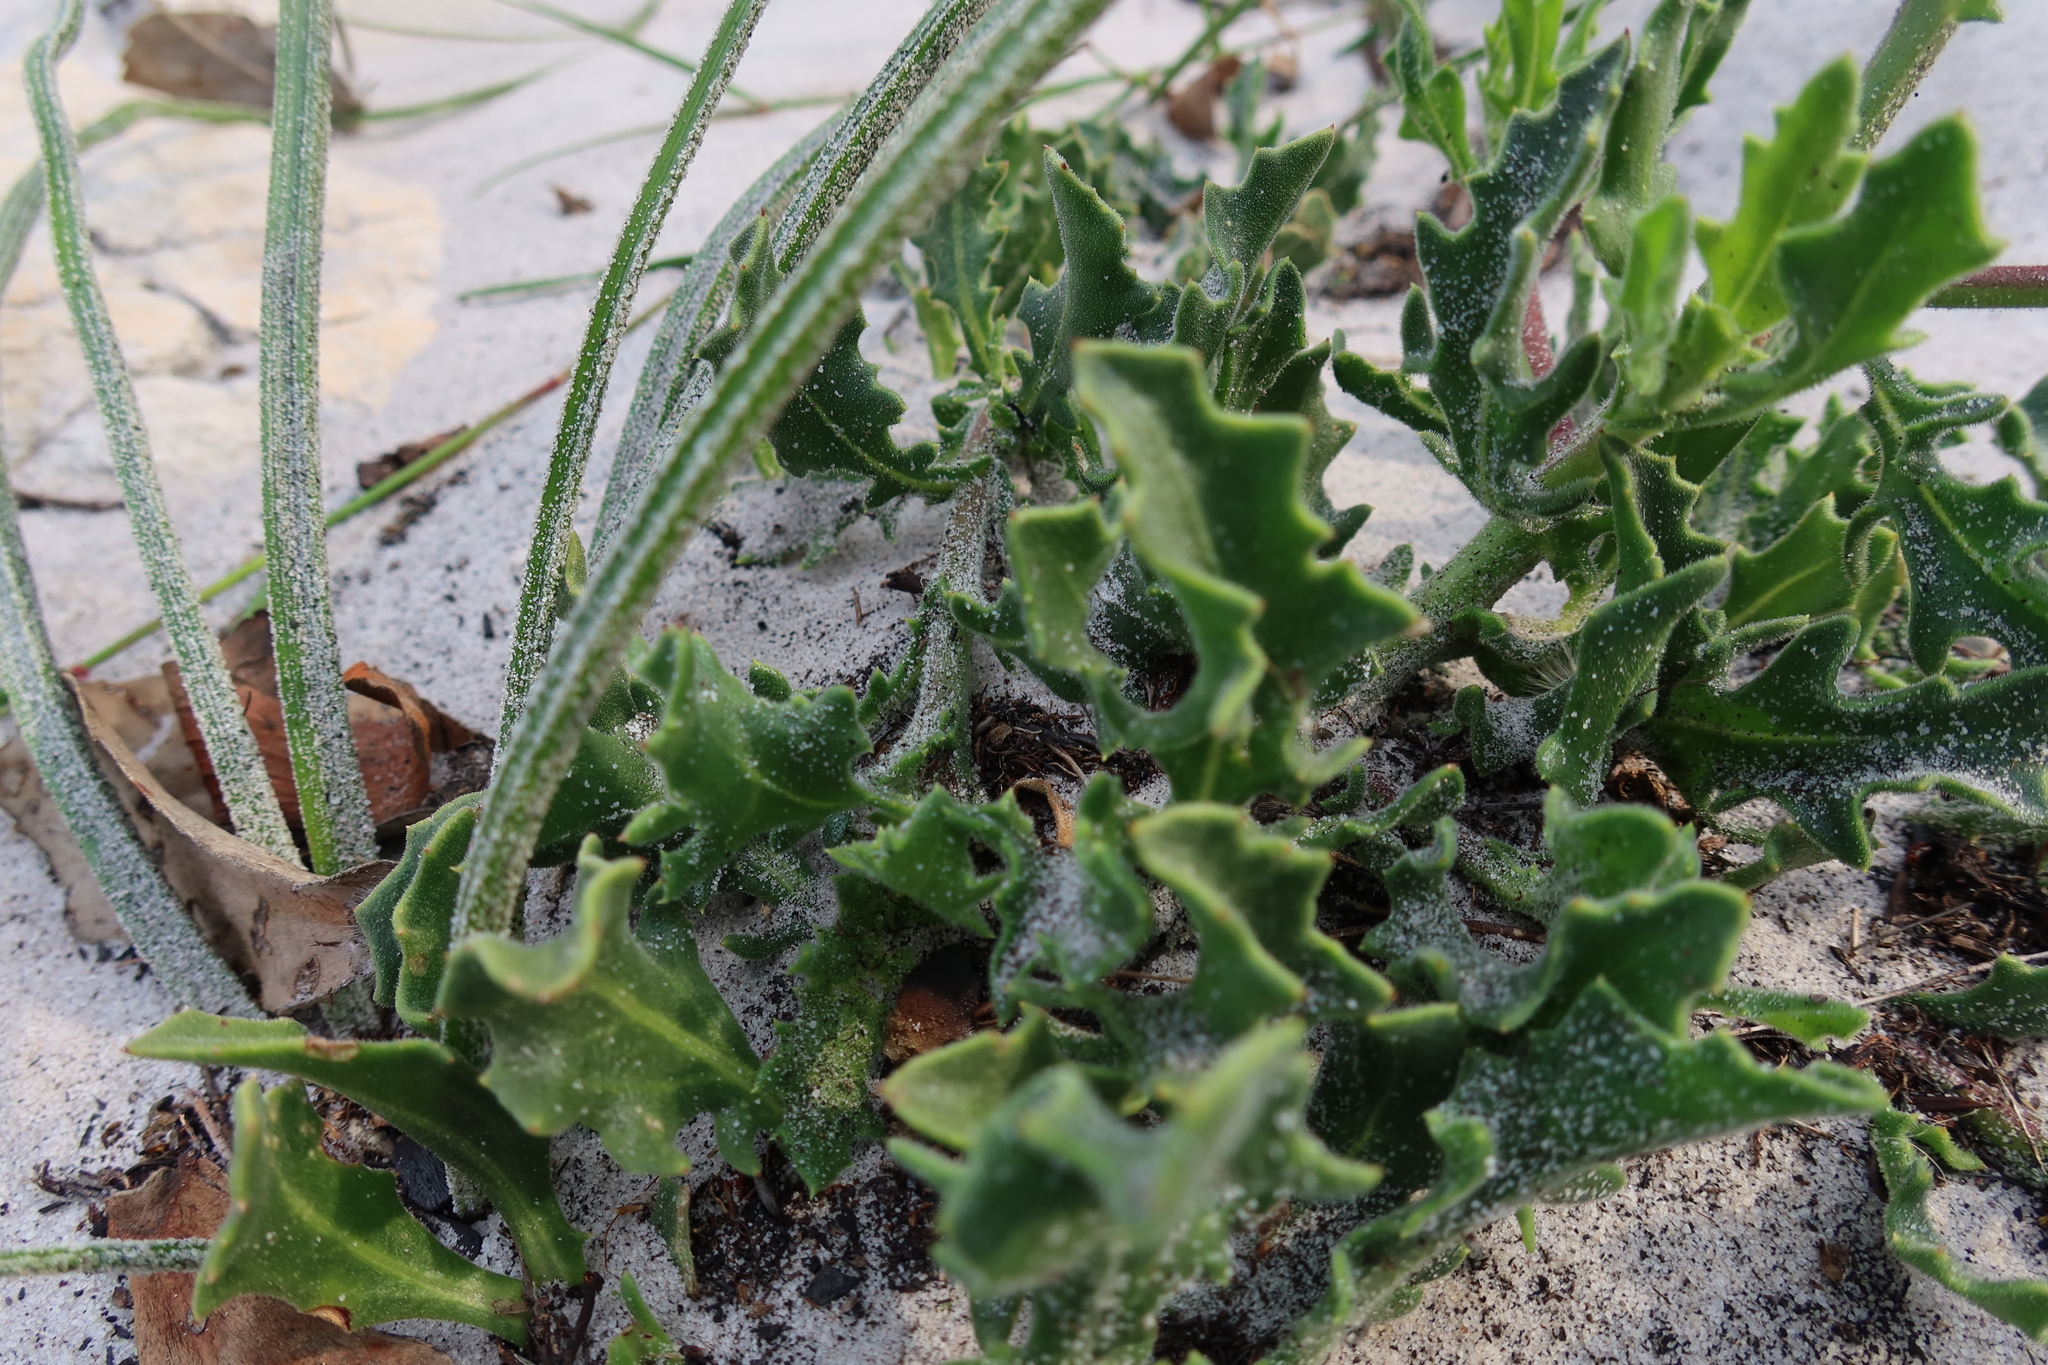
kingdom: Plantae
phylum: Tracheophyta
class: Magnoliopsida
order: Asterales
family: Asteraceae
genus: Osteospermum
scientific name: Osteospermum dentatum
